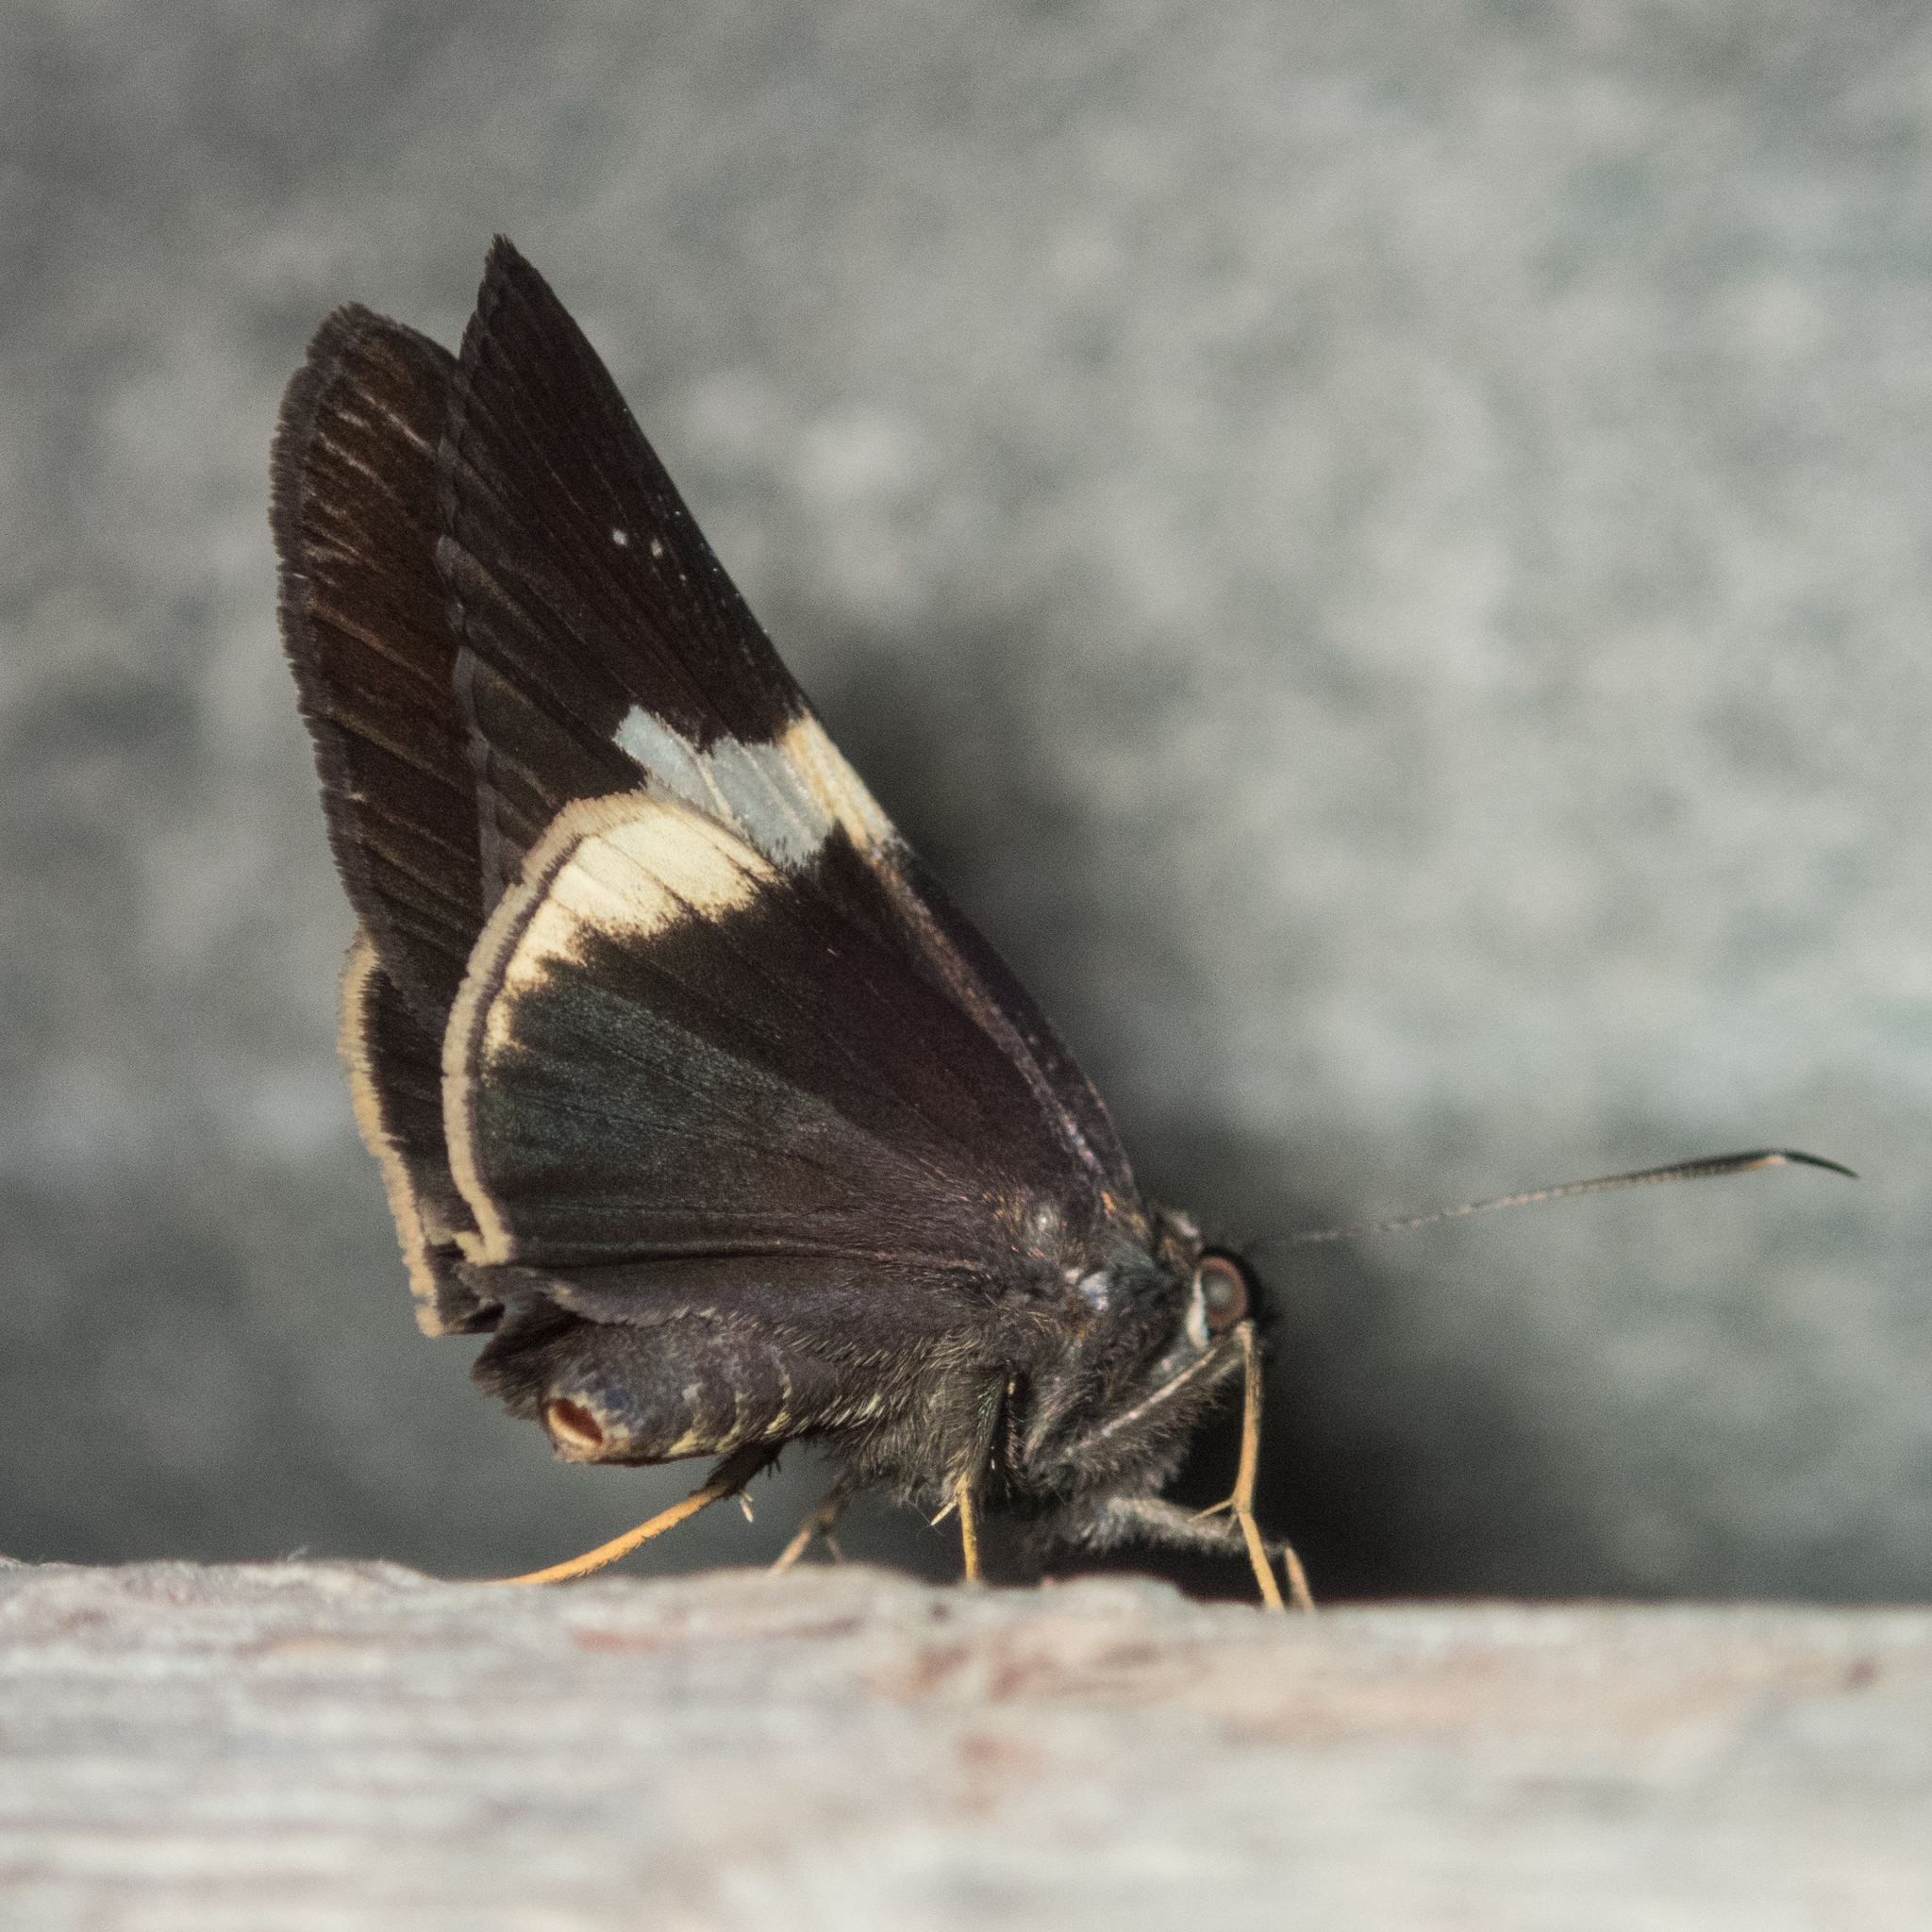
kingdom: Animalia
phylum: Arthropoda
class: Insecta
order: Lepidoptera
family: Hesperiidae
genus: Lotongus
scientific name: Lotongus calathus
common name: White-tipped palmer
